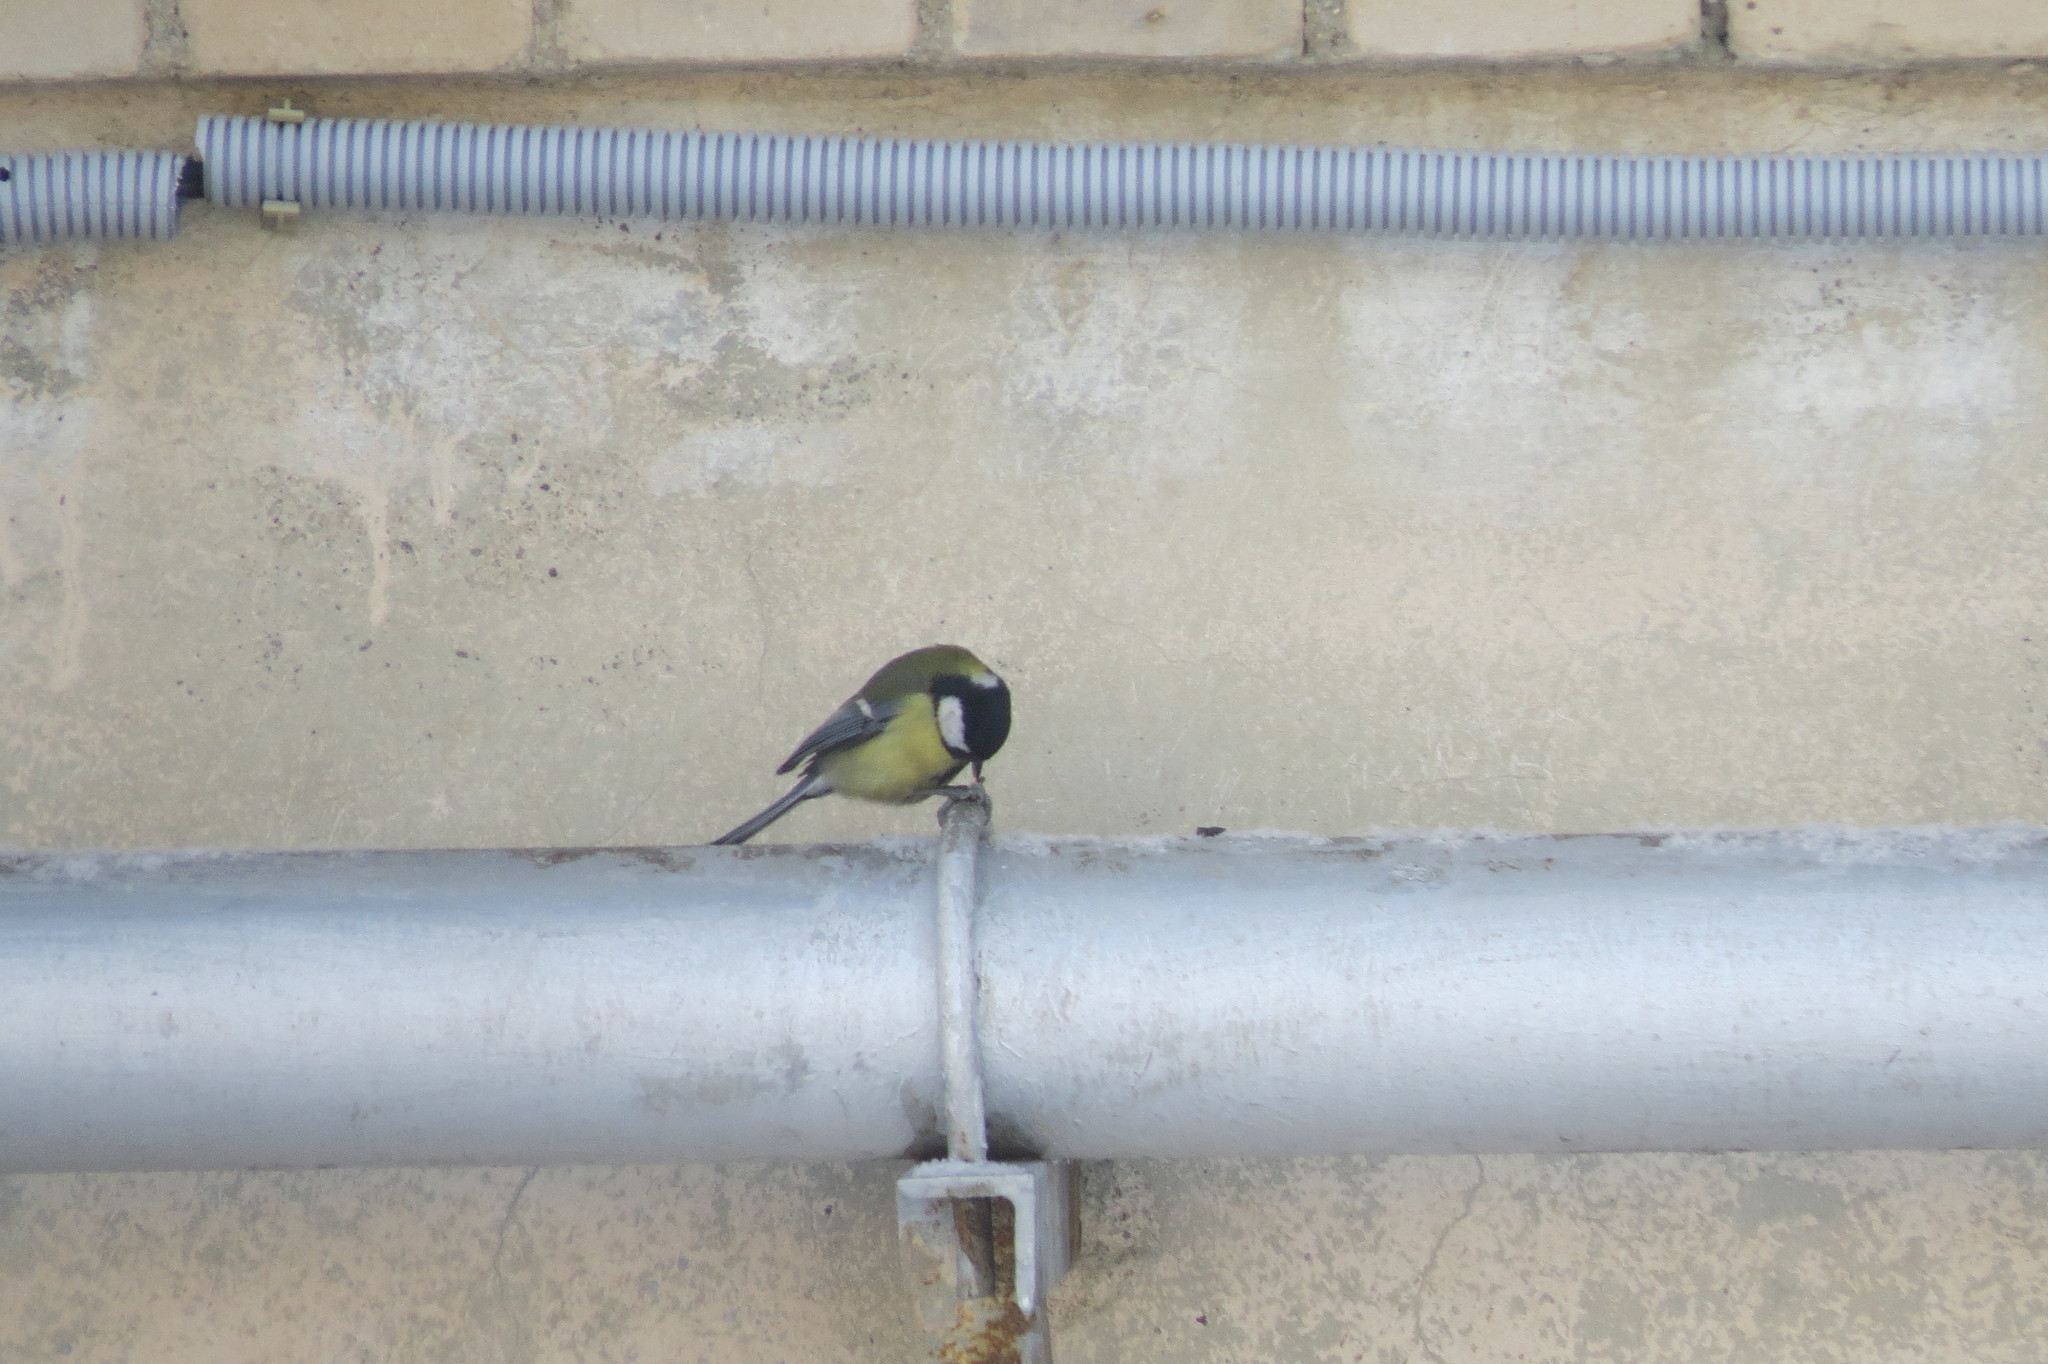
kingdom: Animalia
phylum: Chordata
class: Aves
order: Passeriformes
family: Paridae
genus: Parus
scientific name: Parus major
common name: Great tit
